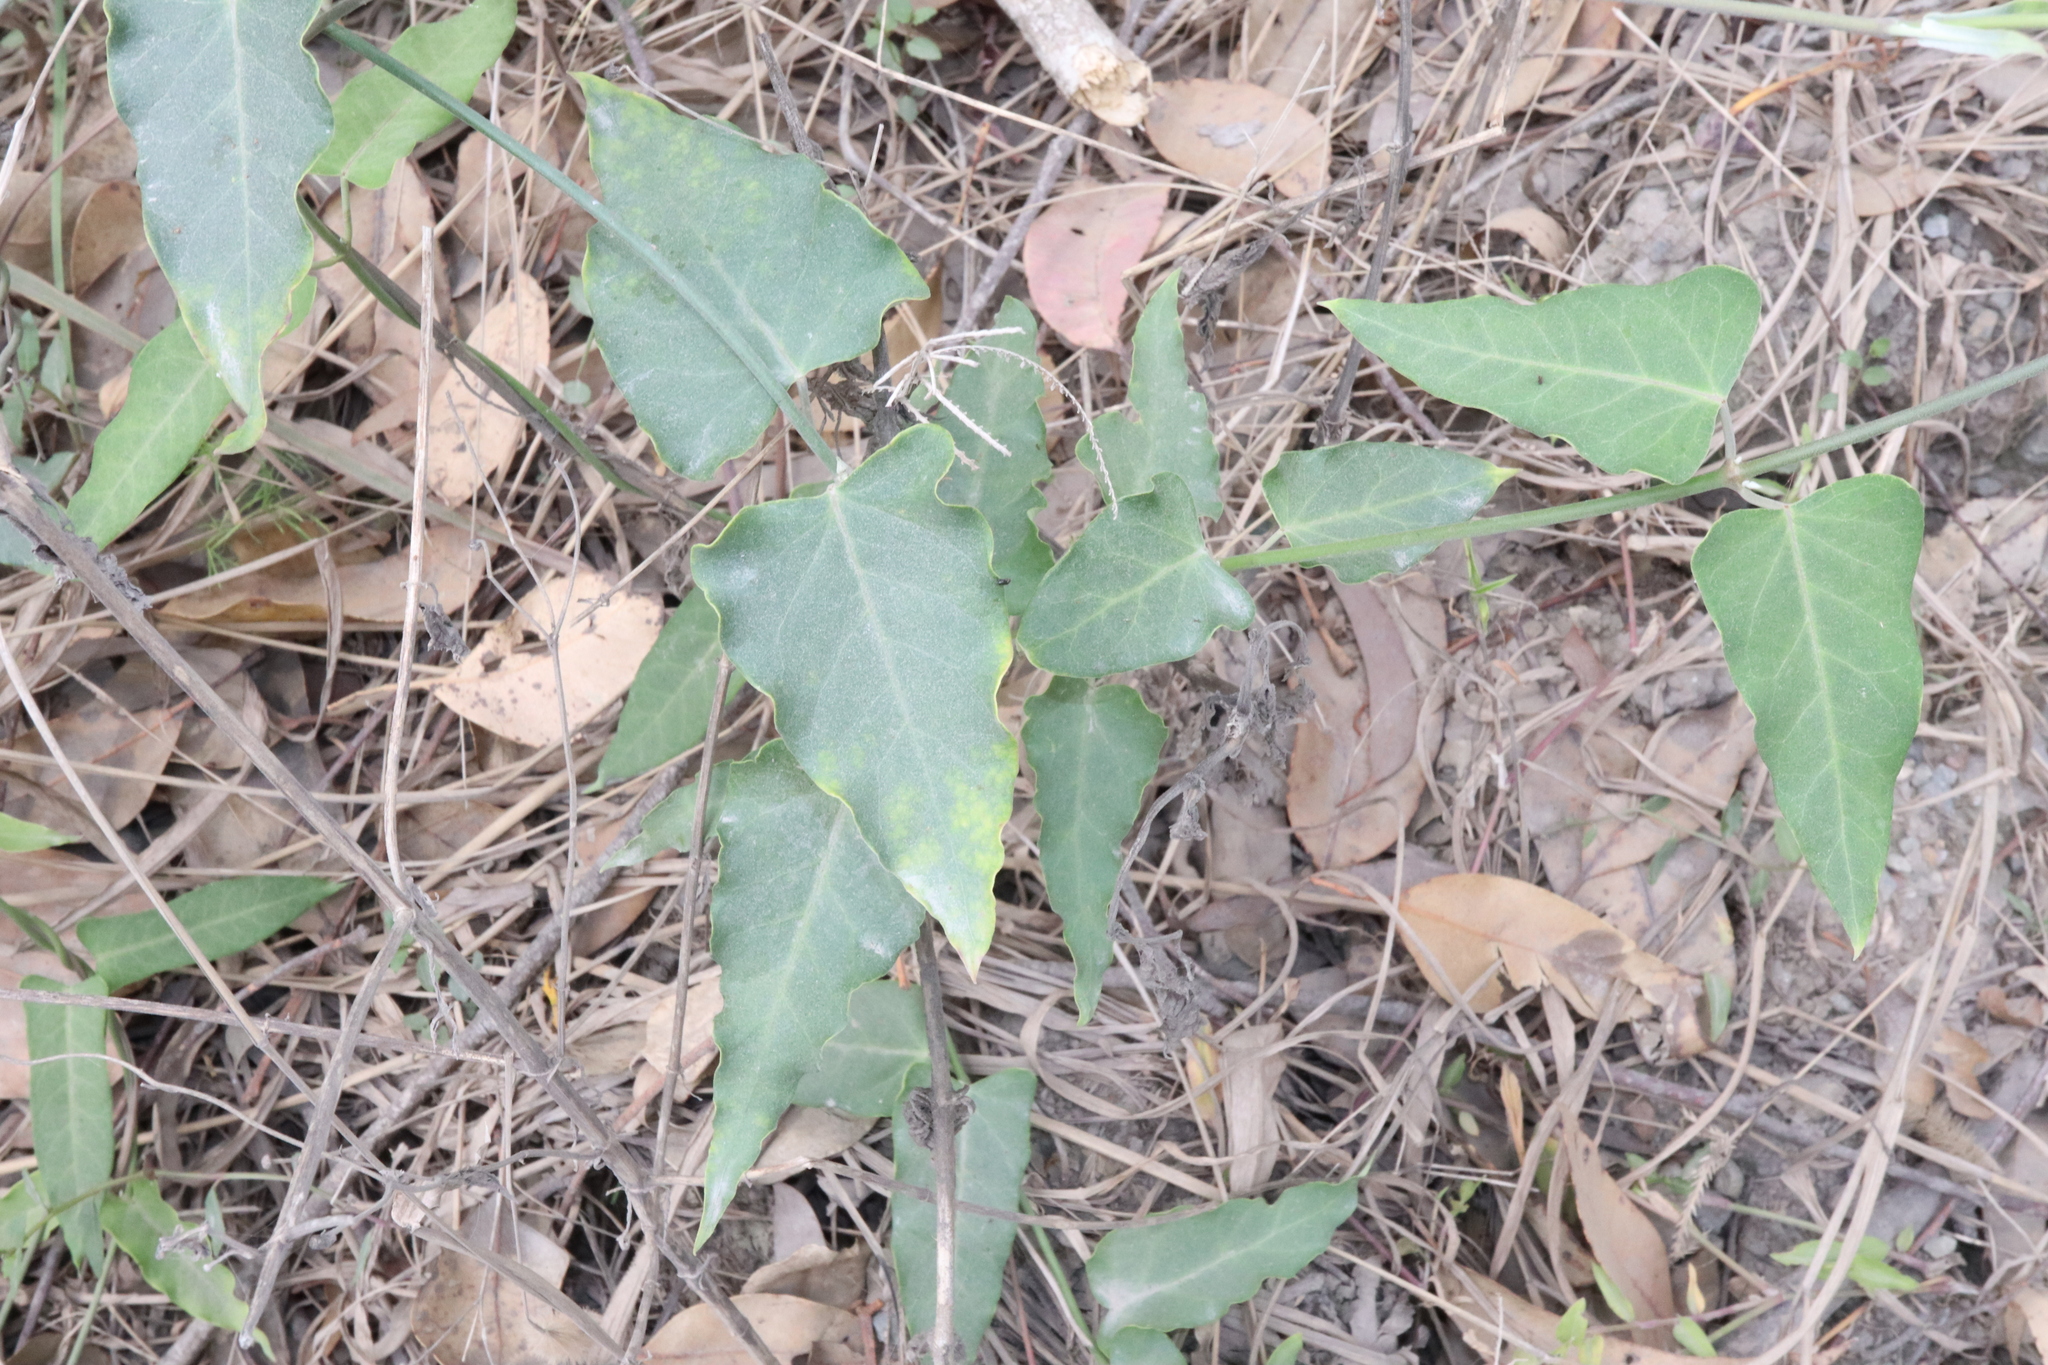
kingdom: Plantae
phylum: Tracheophyta
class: Magnoliopsida
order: Gentianales
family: Apocynaceae
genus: Araujia
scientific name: Araujia sericifera
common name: White bladderflower
